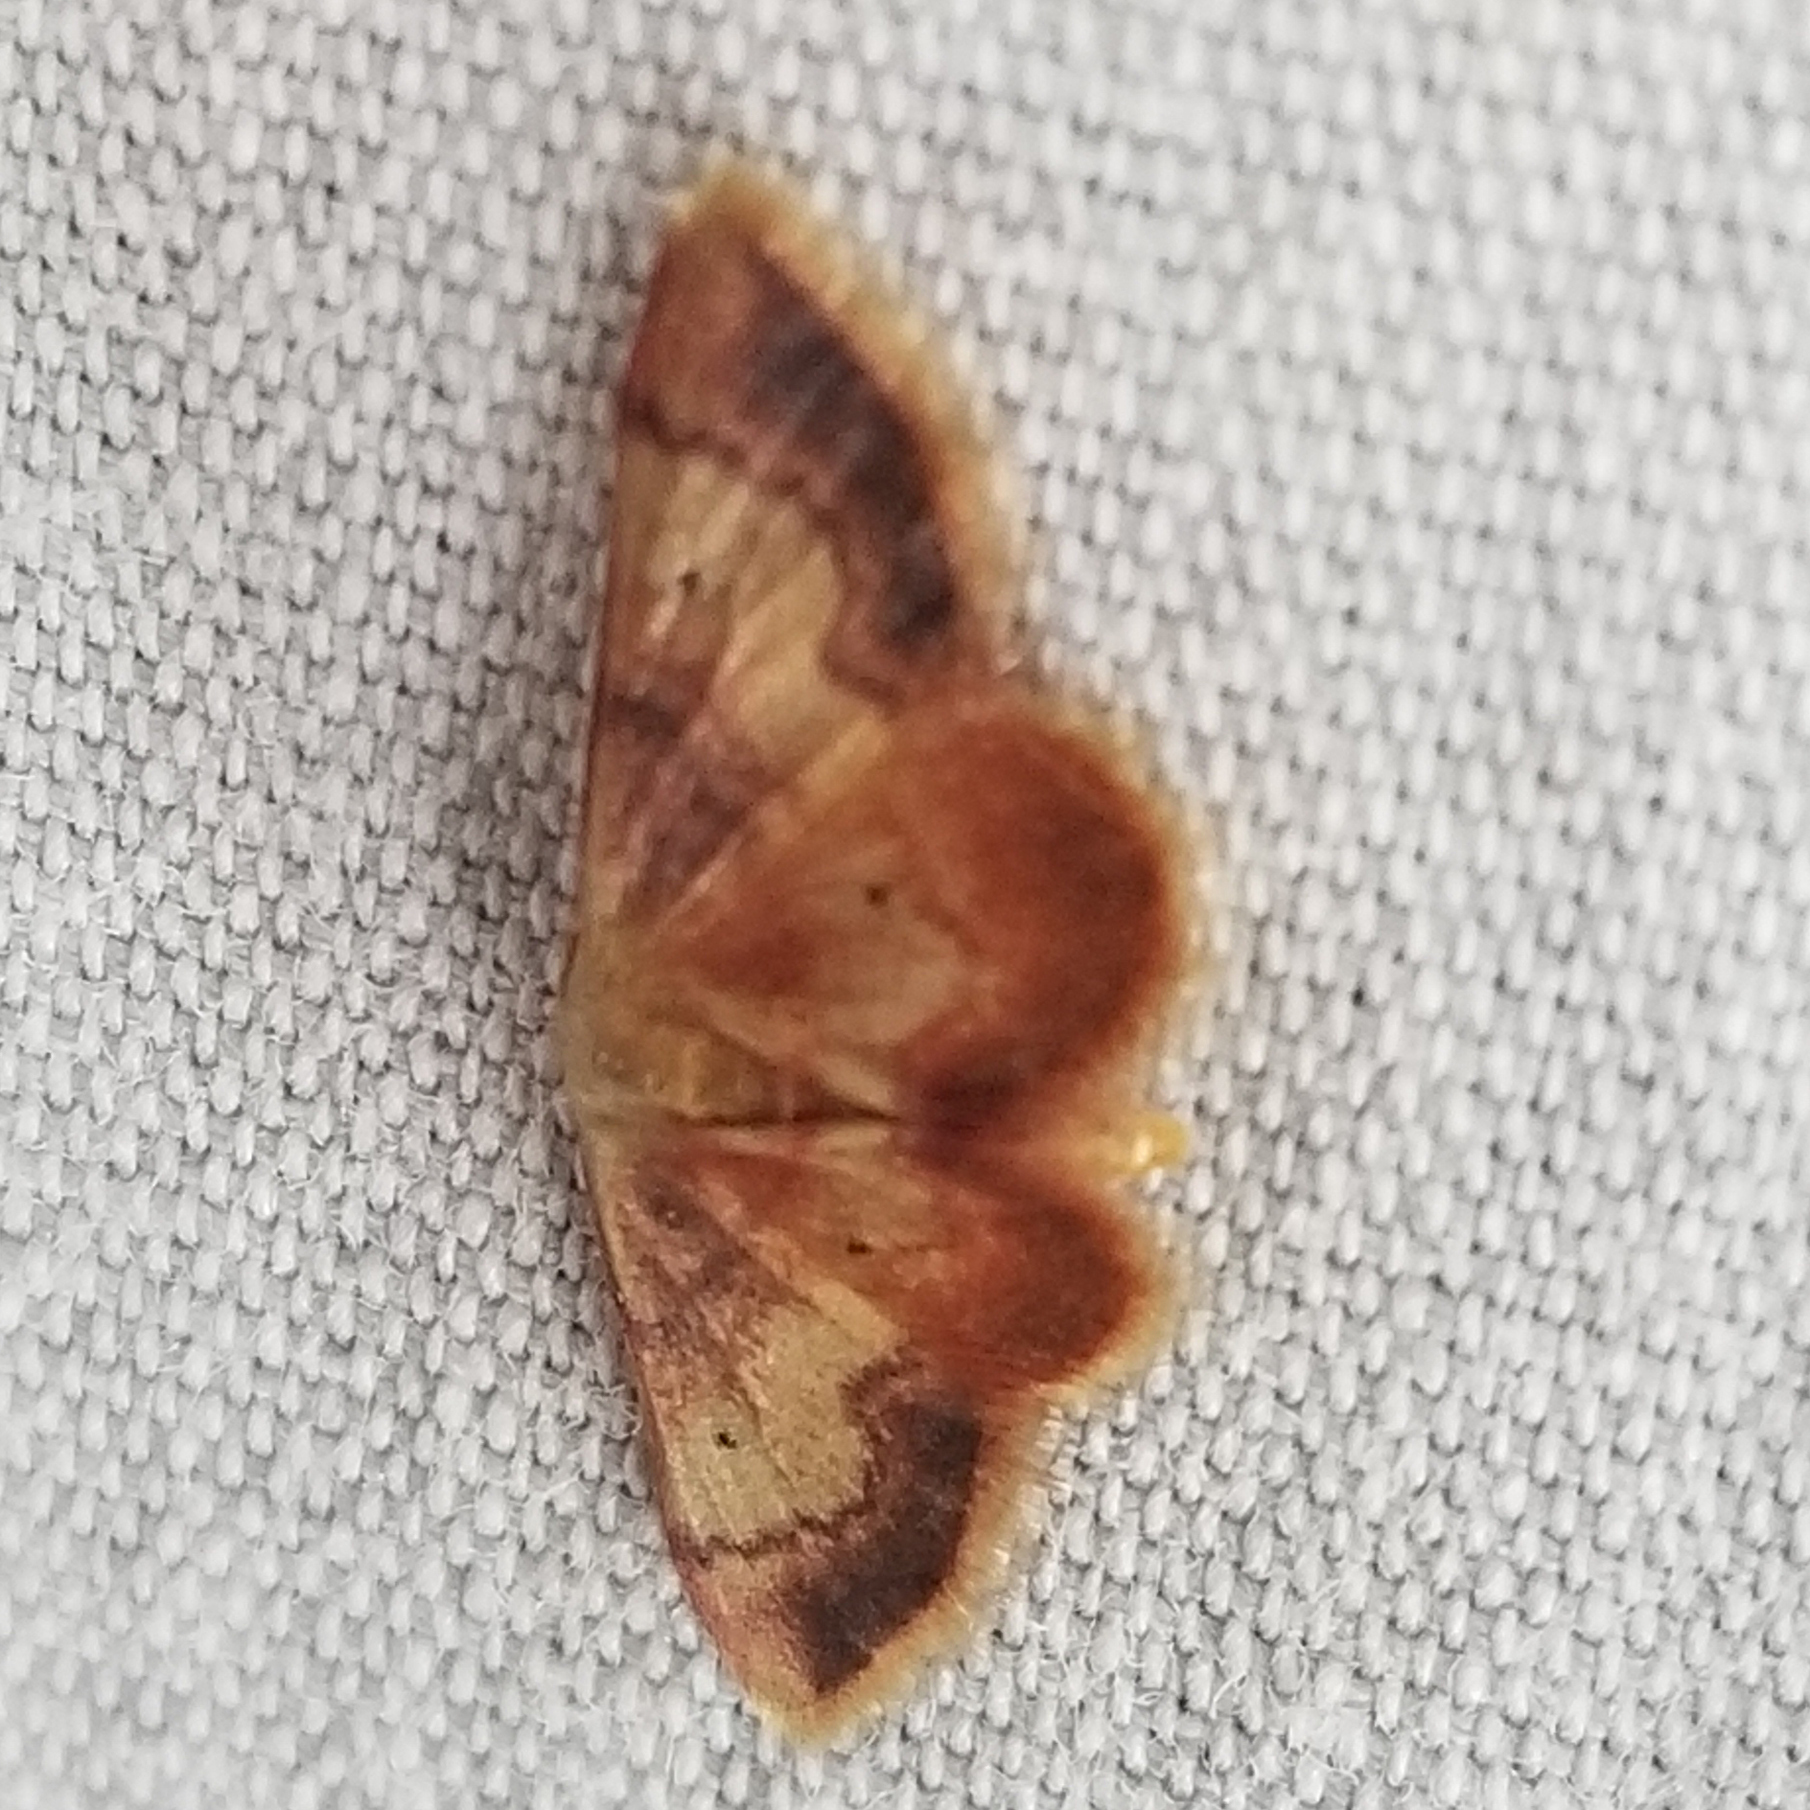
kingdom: Animalia
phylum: Arthropoda
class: Insecta
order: Lepidoptera
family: Geometridae
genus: Idaea
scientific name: Idaea demissaria
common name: Red-bordered wave
